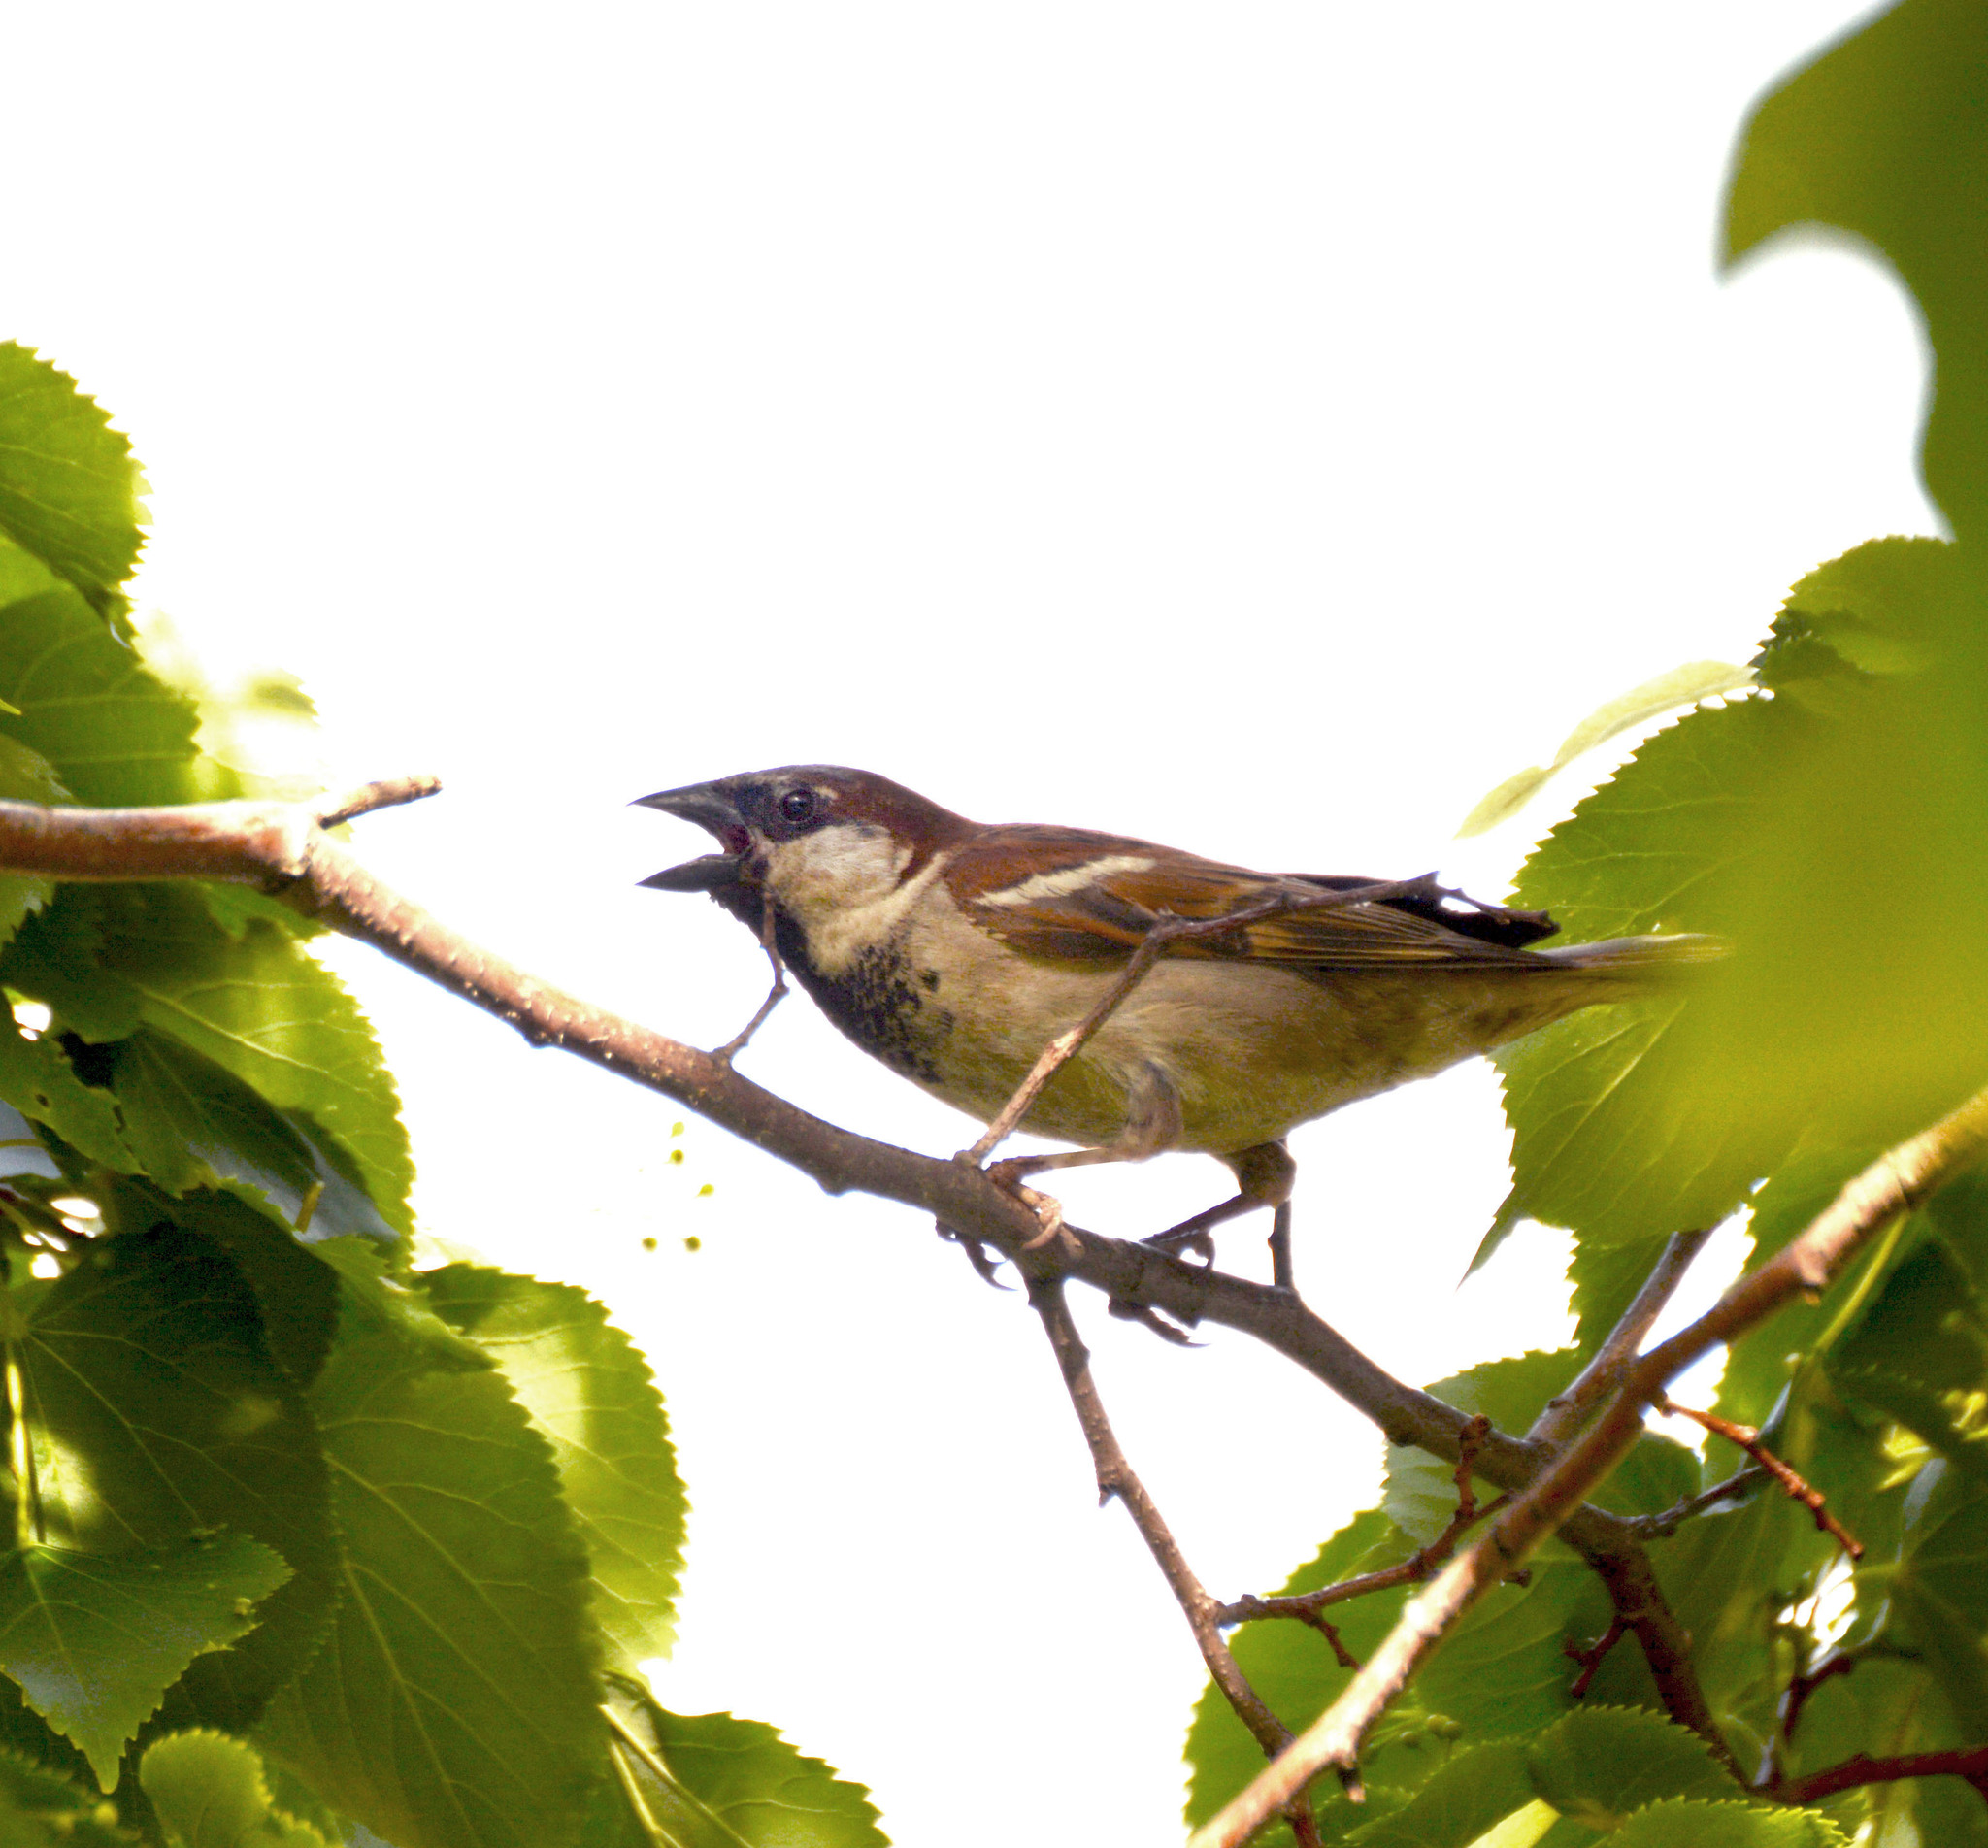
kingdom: Animalia
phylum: Chordata
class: Aves
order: Passeriformes
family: Passeridae
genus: Passer
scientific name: Passer domesticus
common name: House sparrow
